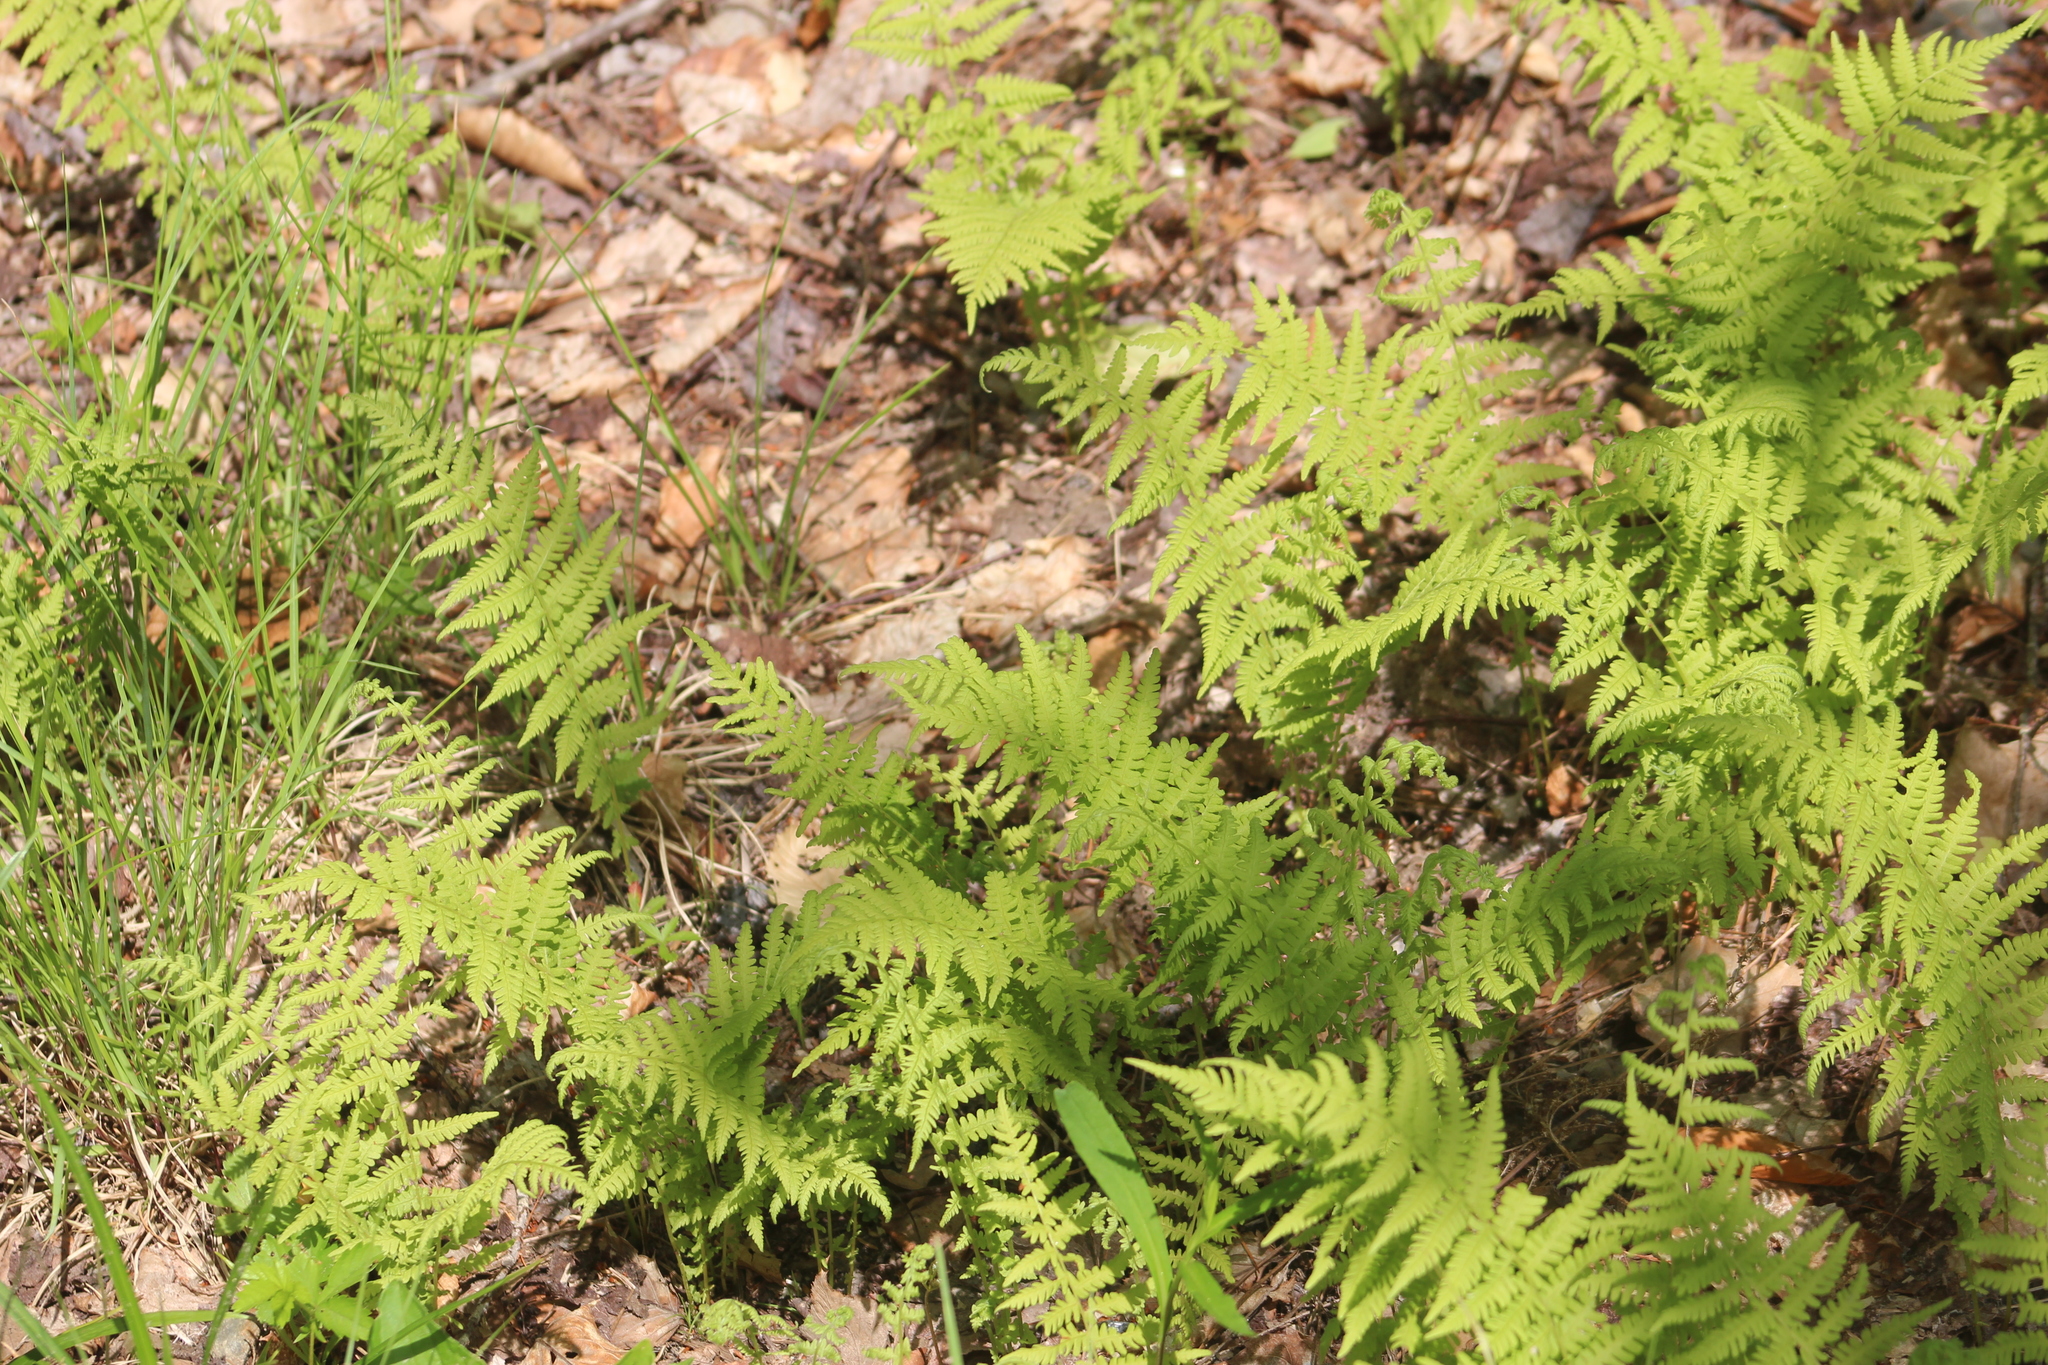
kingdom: Plantae
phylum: Tracheophyta
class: Polypodiopsida
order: Polypodiales
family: Thelypteridaceae
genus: Amauropelta
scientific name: Amauropelta noveboracensis
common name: New york fern
